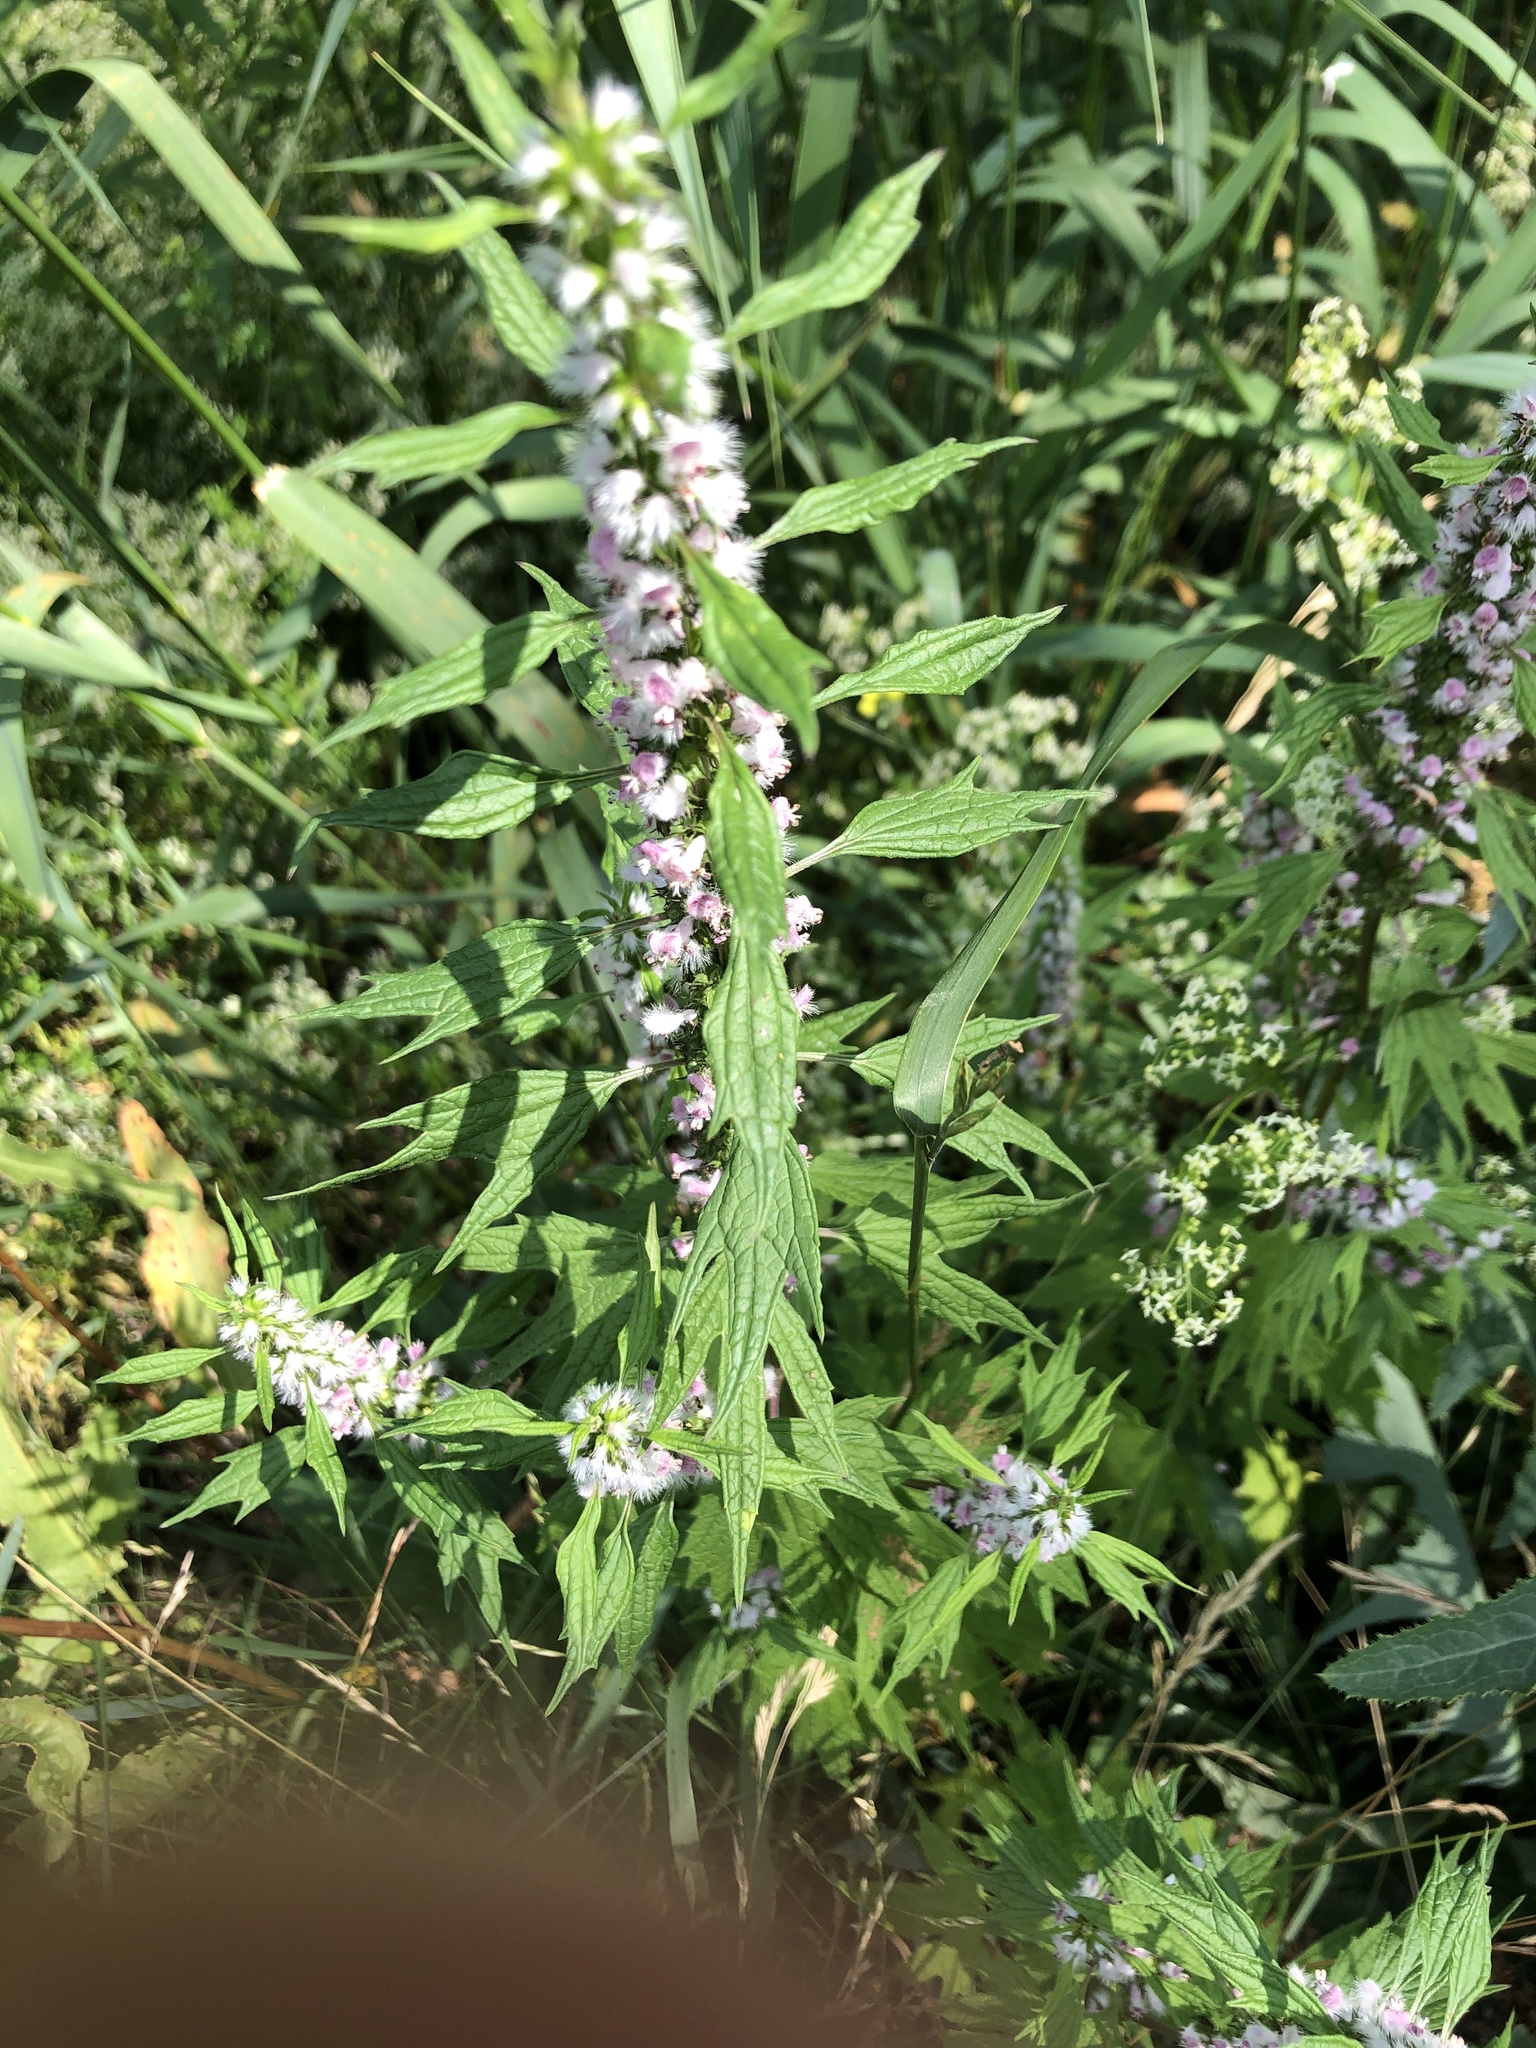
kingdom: Plantae
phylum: Tracheophyta
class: Magnoliopsida
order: Lamiales
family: Lamiaceae
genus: Leonurus
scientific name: Leonurus cardiaca
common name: Motherwort
